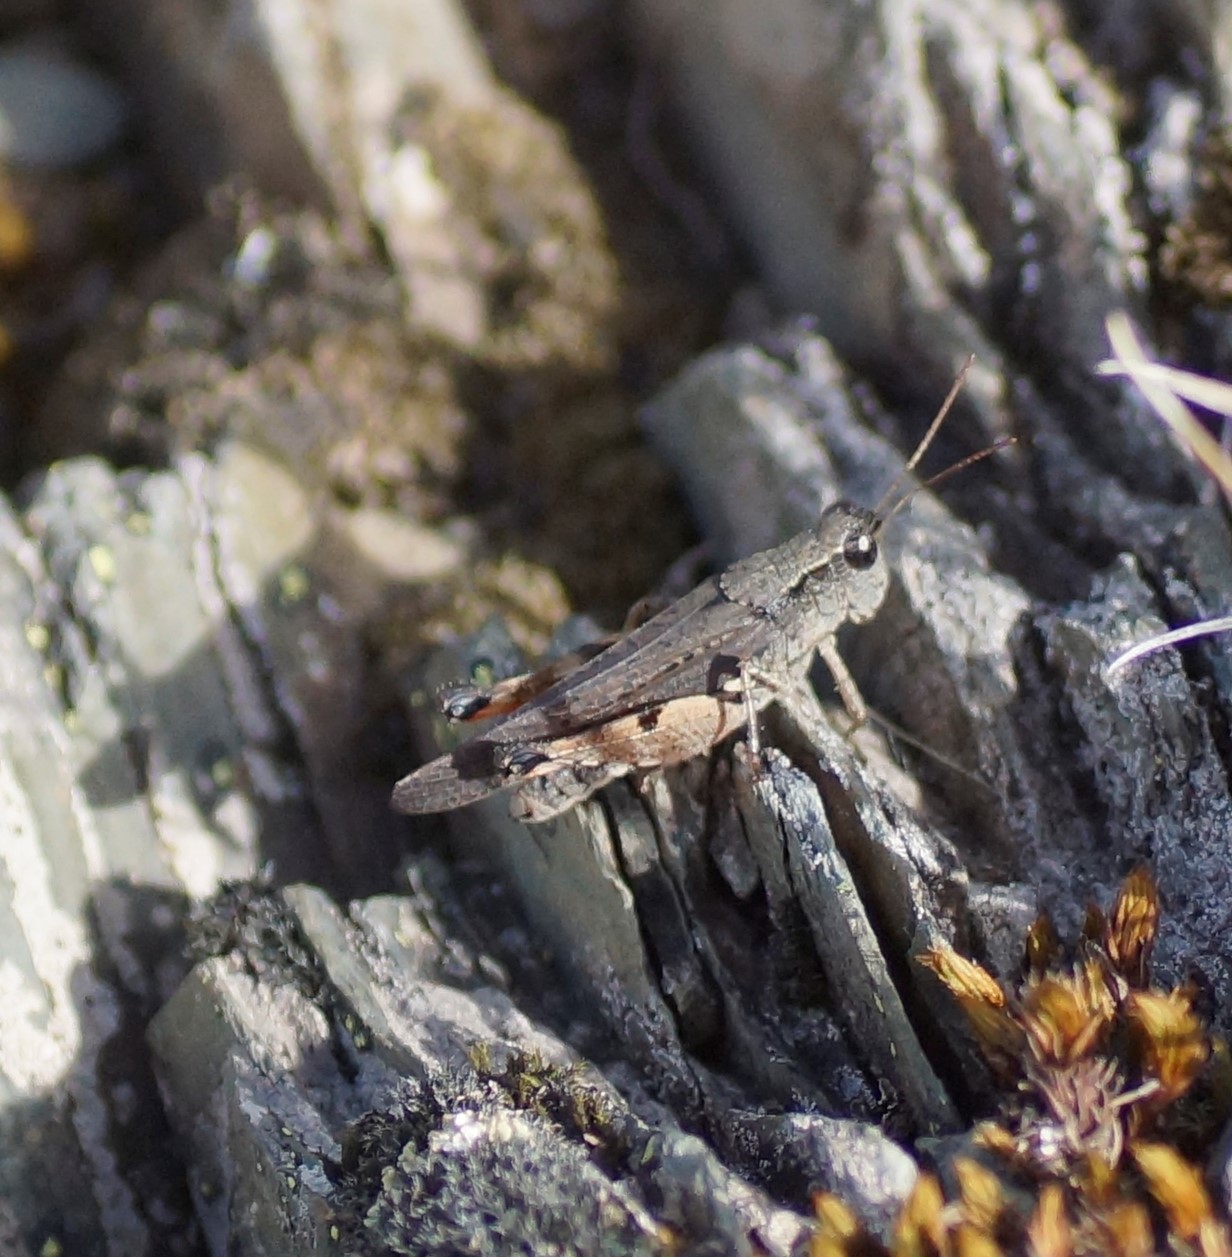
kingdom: Animalia
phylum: Arthropoda
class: Insecta
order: Orthoptera
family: Acrididae
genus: Phaulacridium
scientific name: Phaulacridium vittatum
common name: Wingless grasshopper
